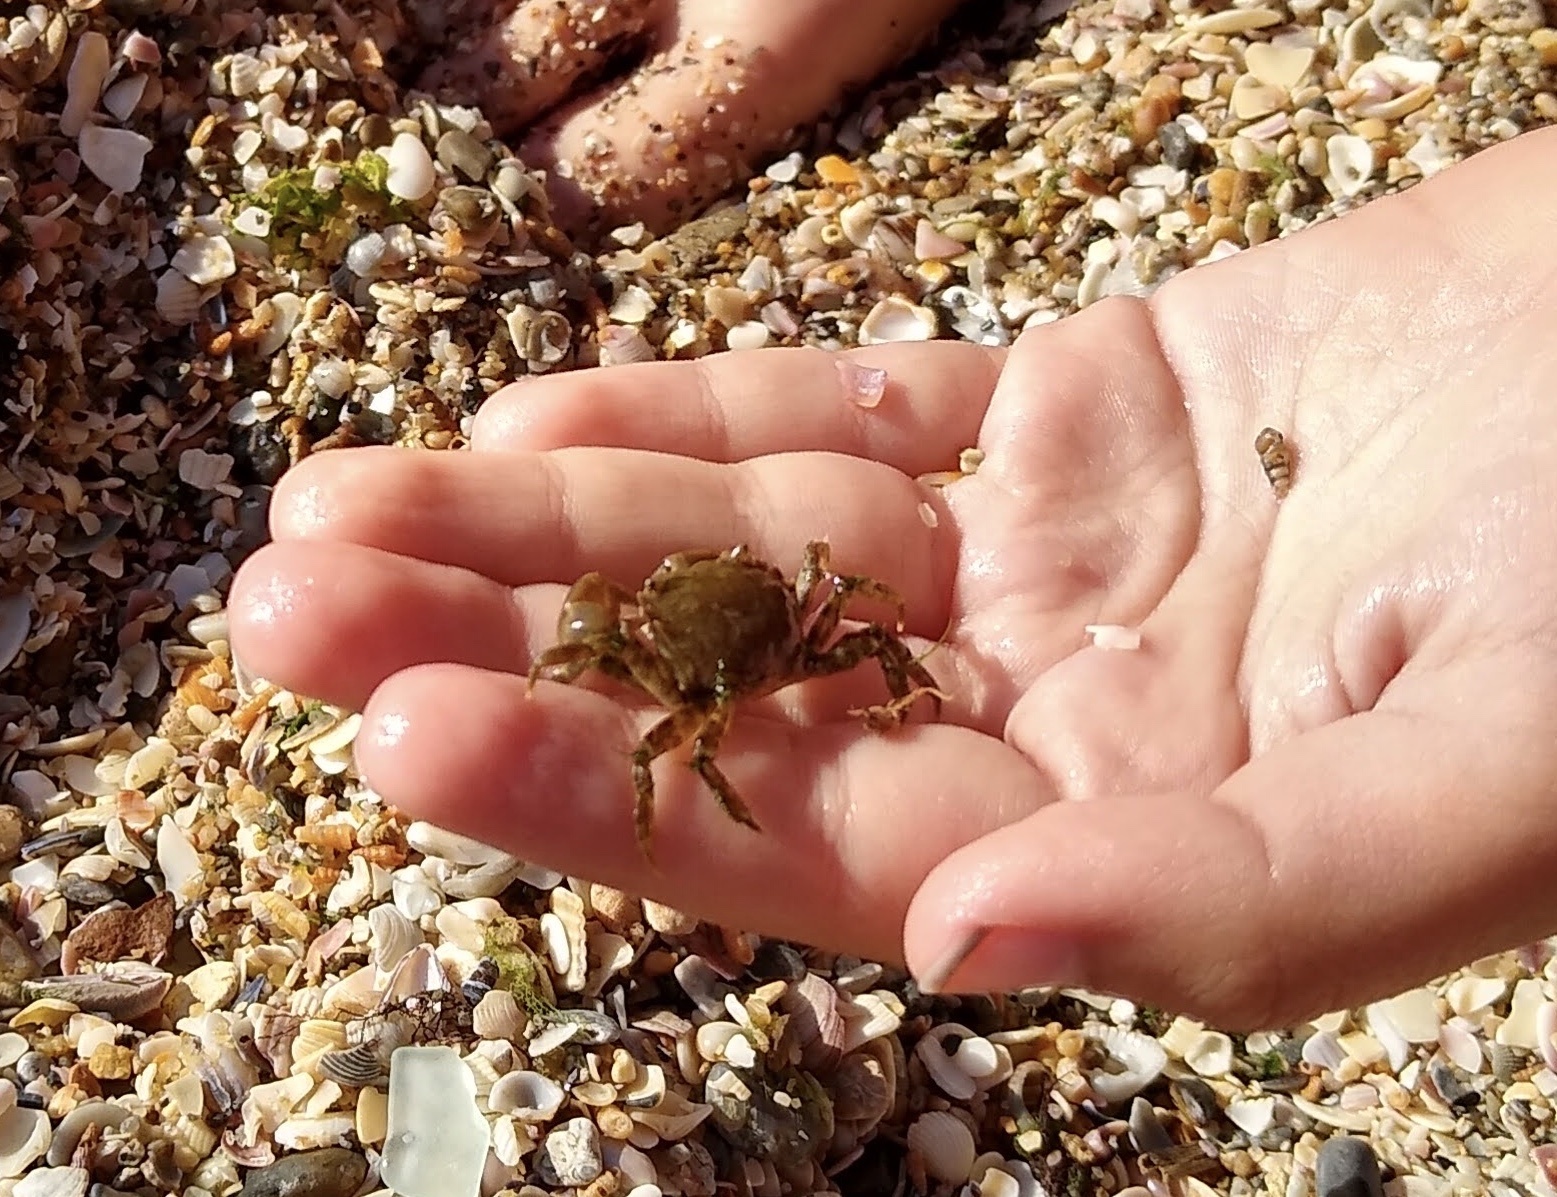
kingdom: Animalia
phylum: Arthropoda
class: Malacostraca
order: Decapoda
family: Grapsidae
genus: Pachygrapsus
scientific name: Pachygrapsus marmoratus
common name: Marbled rock crab
